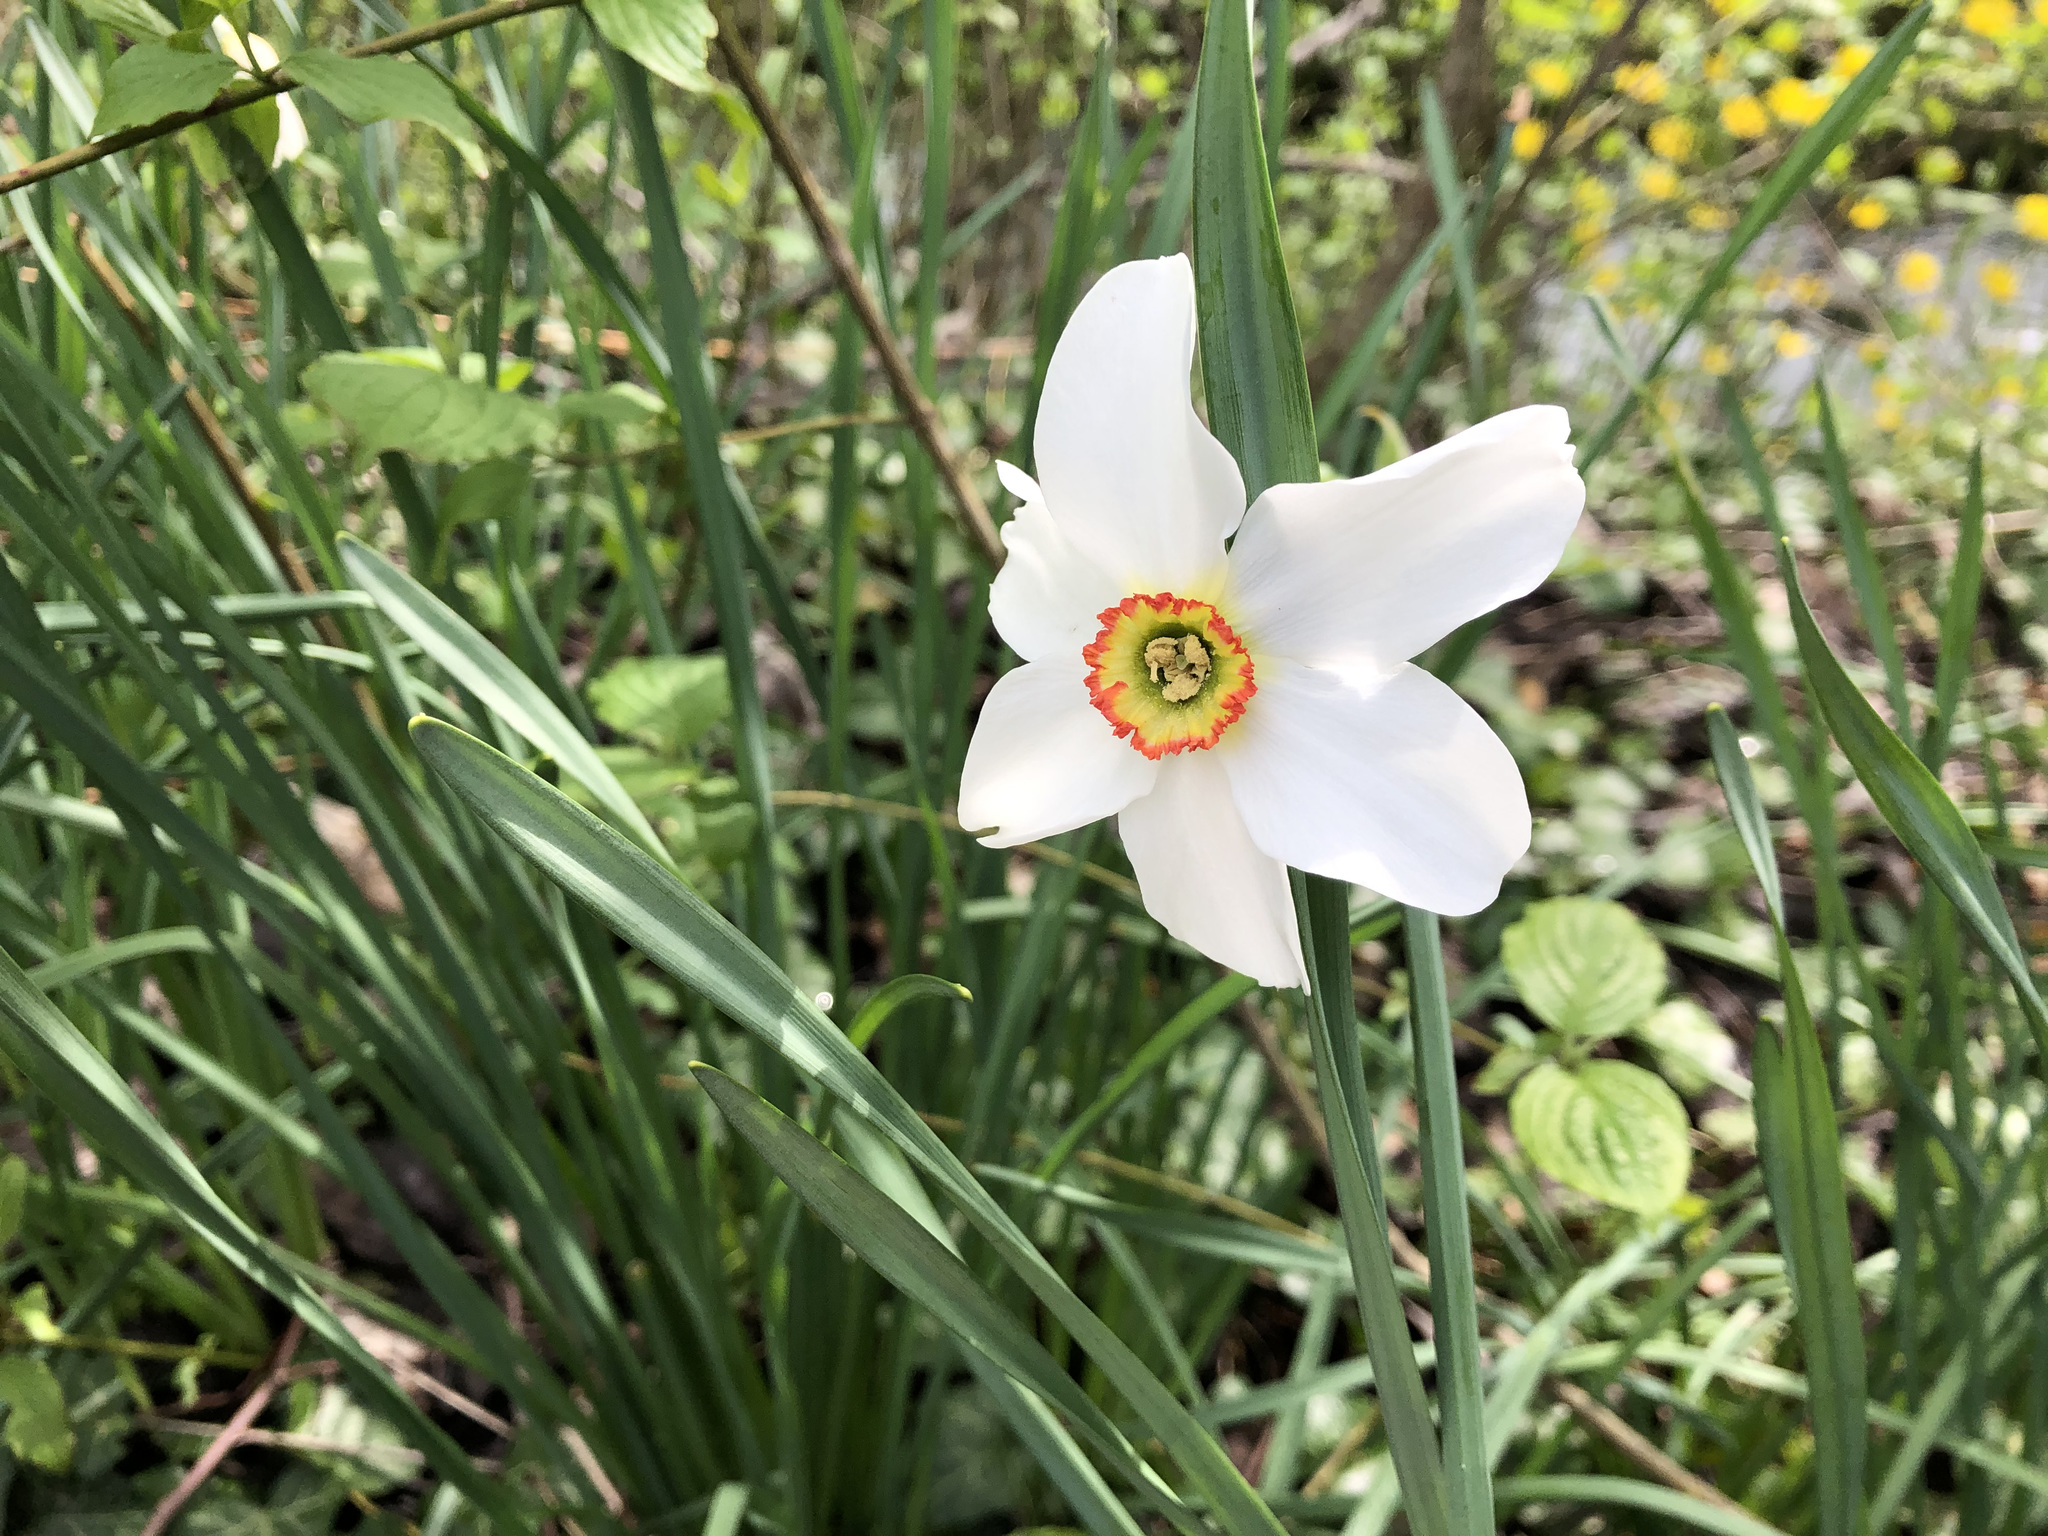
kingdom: Plantae
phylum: Tracheophyta
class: Liliopsida
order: Asparagales
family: Amaryllidaceae
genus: Narcissus
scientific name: Narcissus poeticus
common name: Pheasant's-eye daffodil
